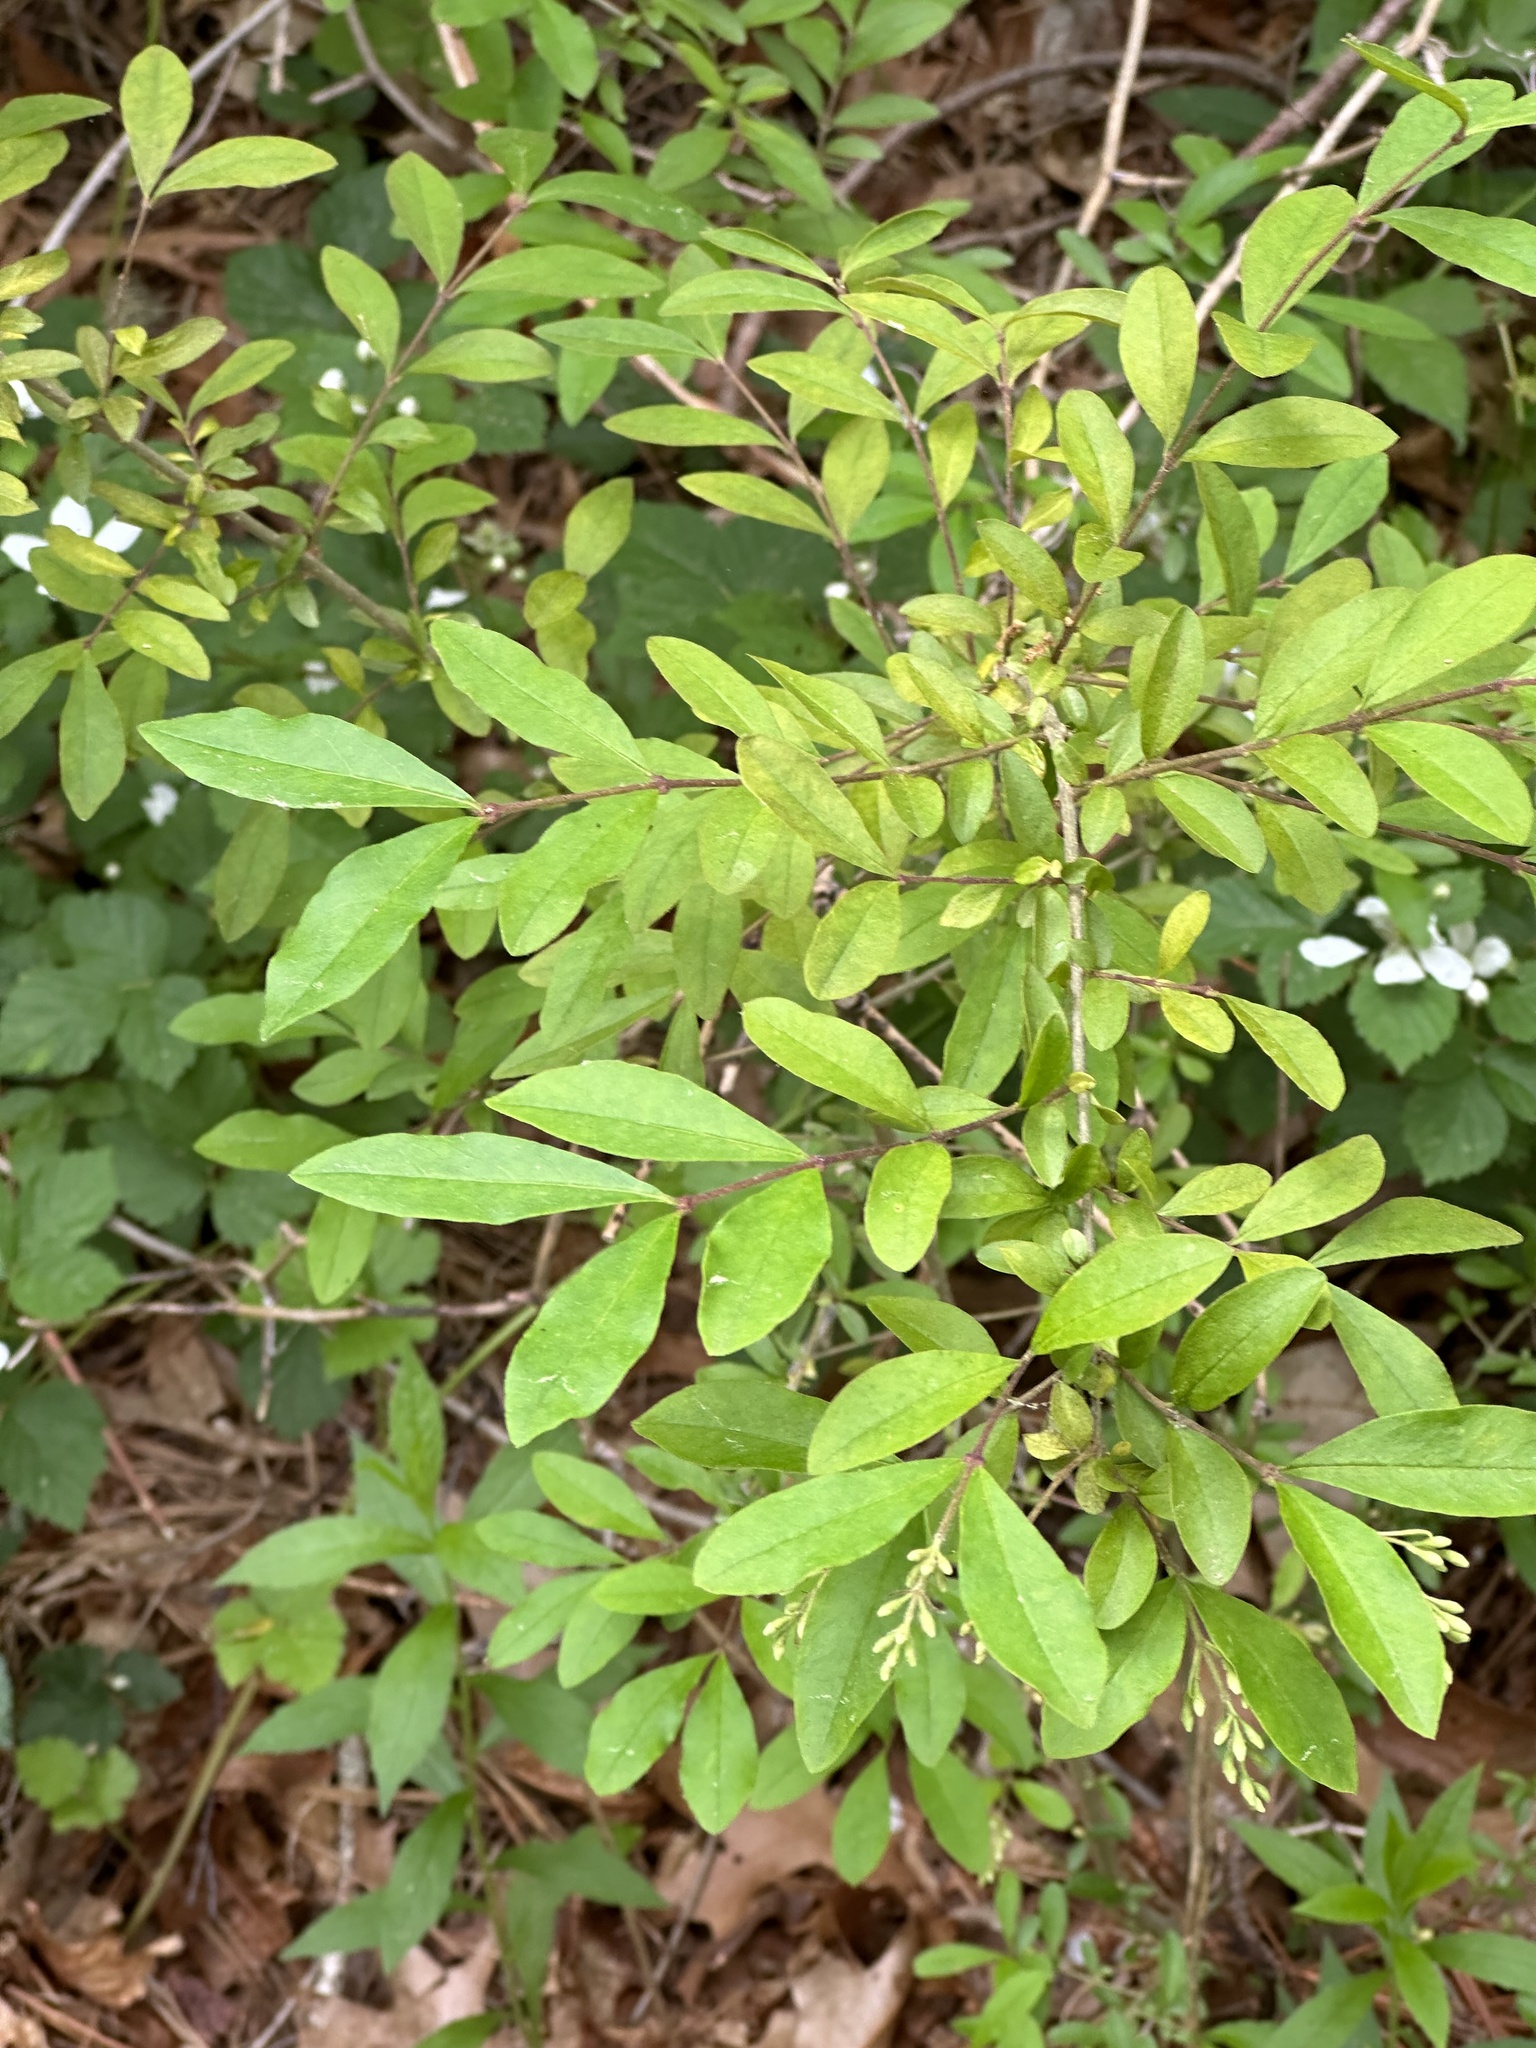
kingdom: Plantae
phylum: Tracheophyta
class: Magnoliopsida
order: Lamiales
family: Oleaceae
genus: Ligustrum
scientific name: Ligustrum obtusifolium
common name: Border privet
